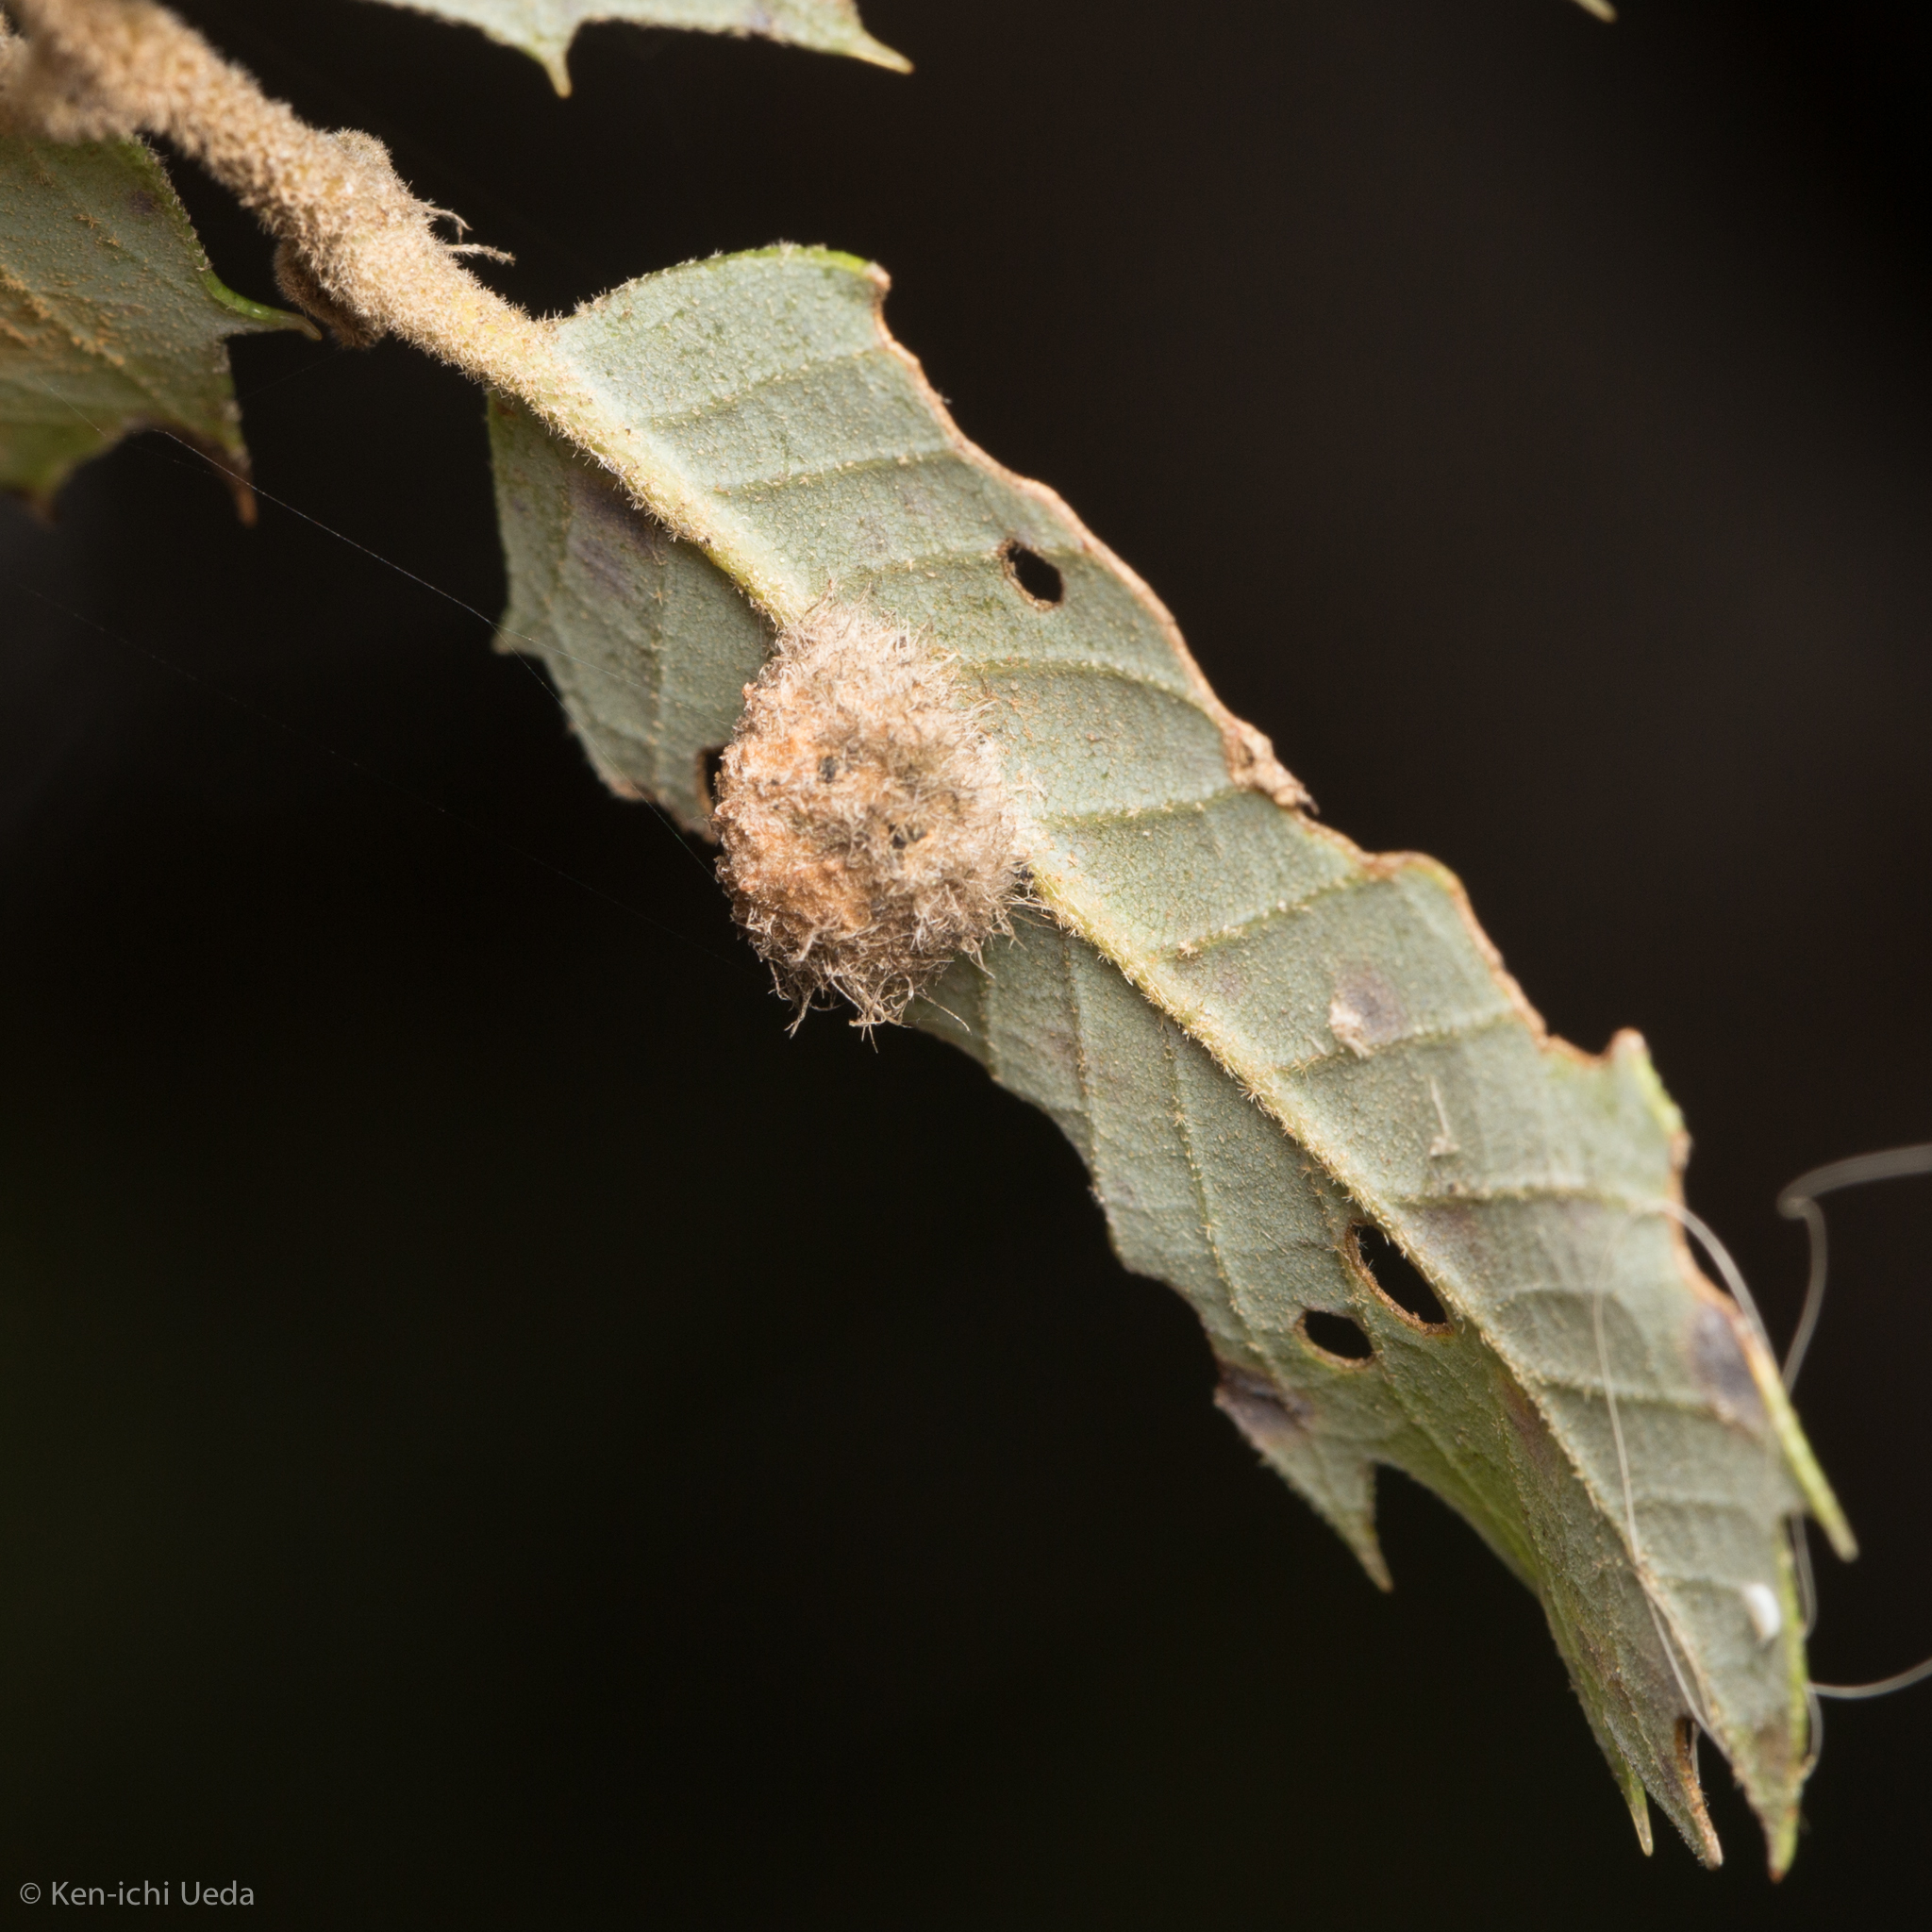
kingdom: Animalia
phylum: Arthropoda
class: Insecta
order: Hymenoptera
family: Cynipidae
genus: Disholandricus
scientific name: Disholandricus
